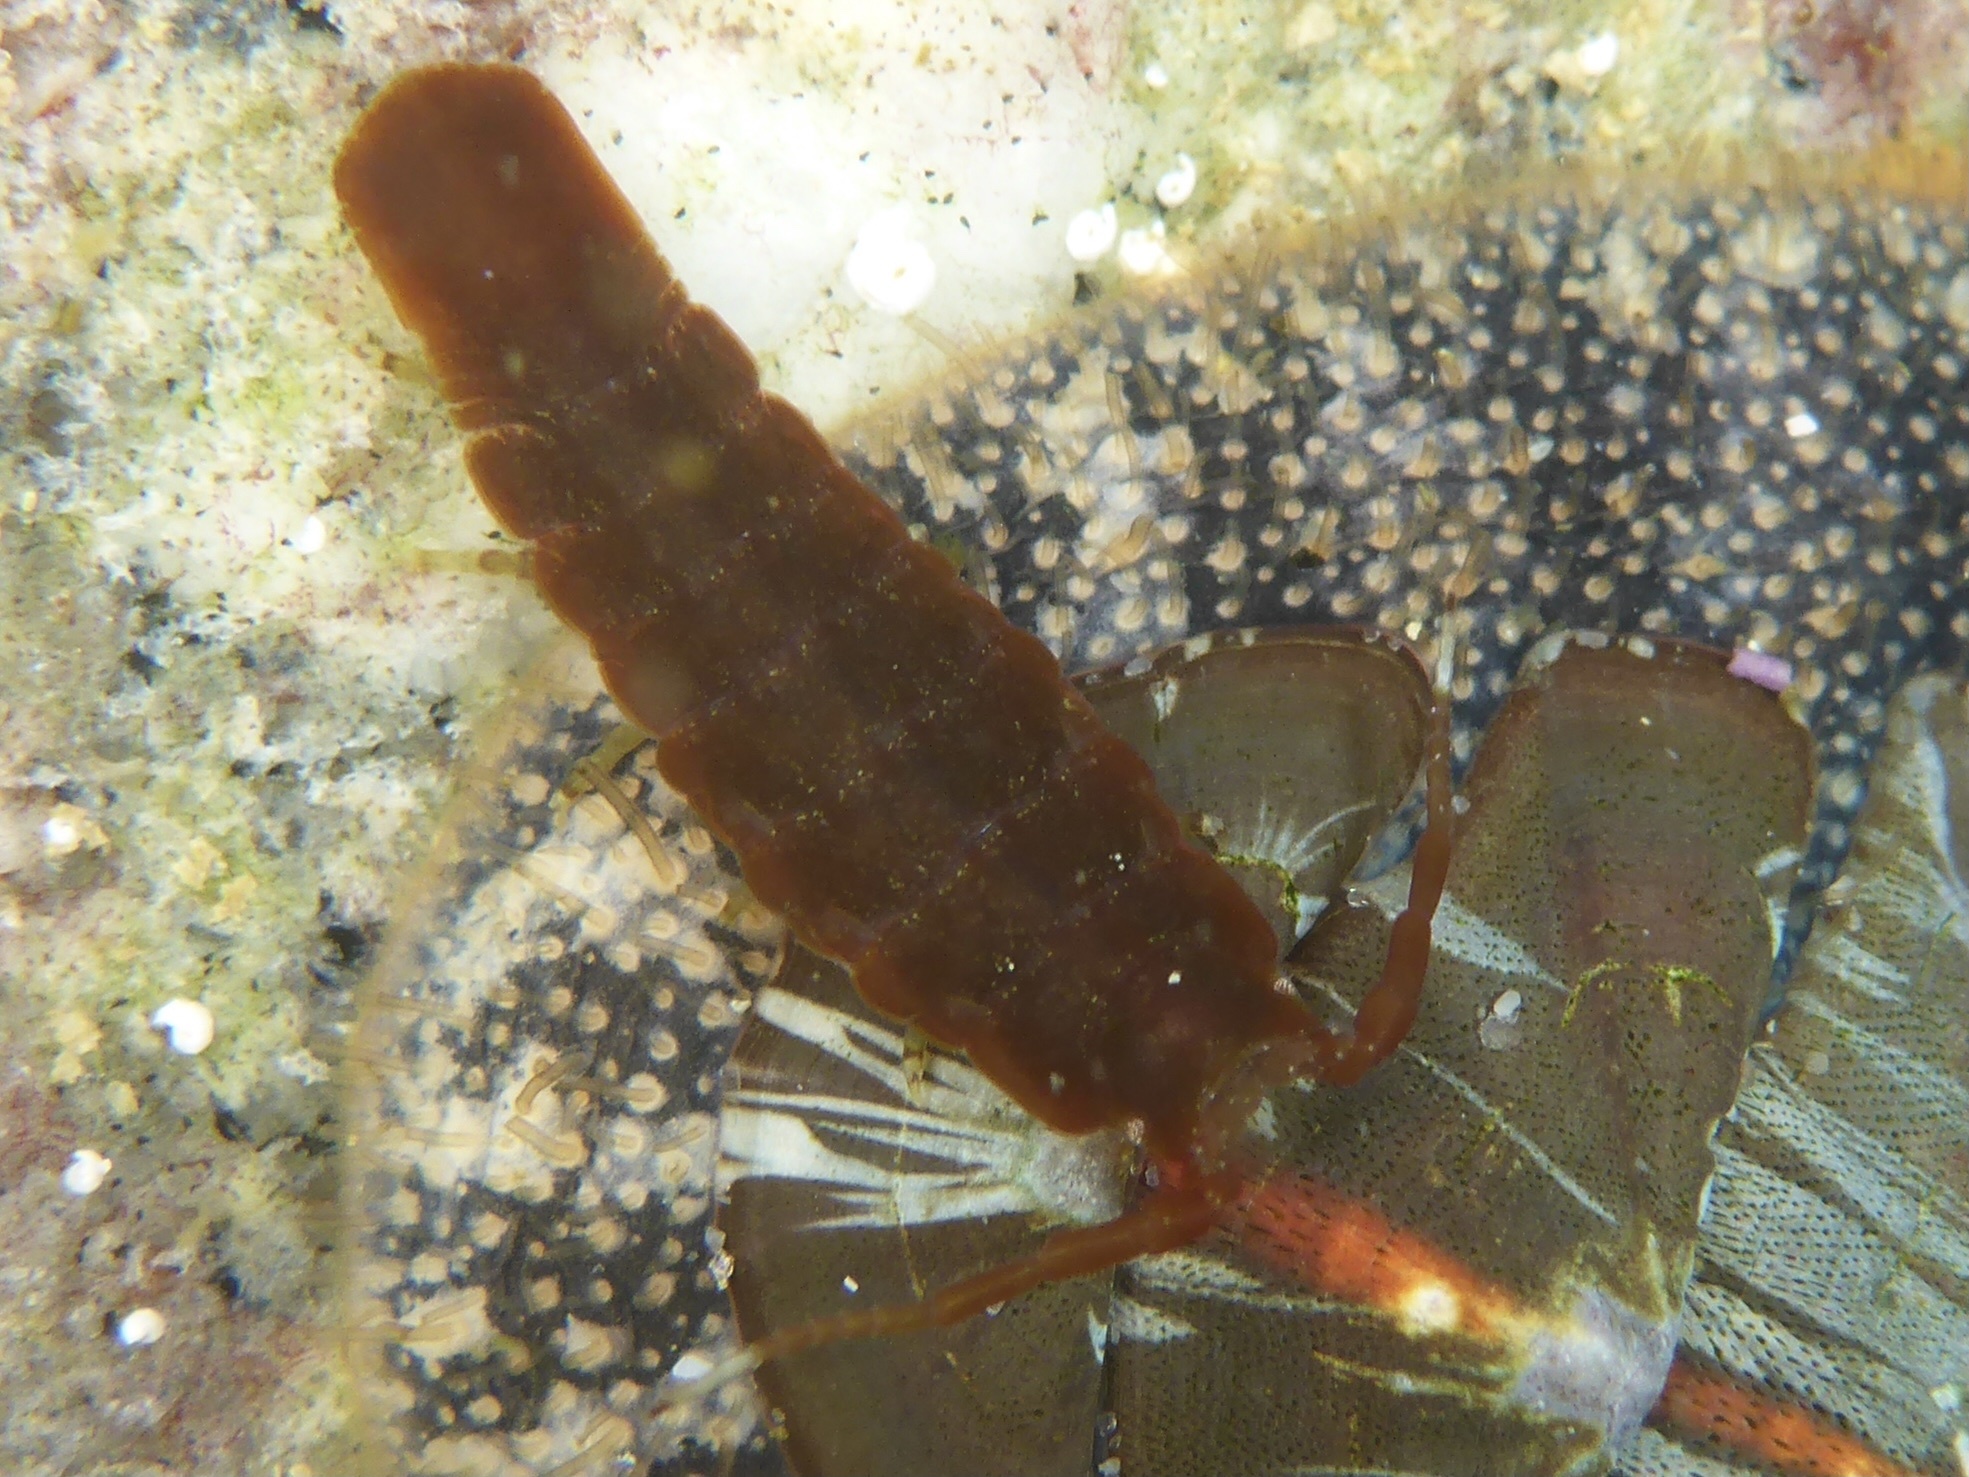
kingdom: Animalia
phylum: Arthropoda
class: Malacostraca
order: Isopoda
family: Idoteidae
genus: Idotea
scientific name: Idotea urotoma
